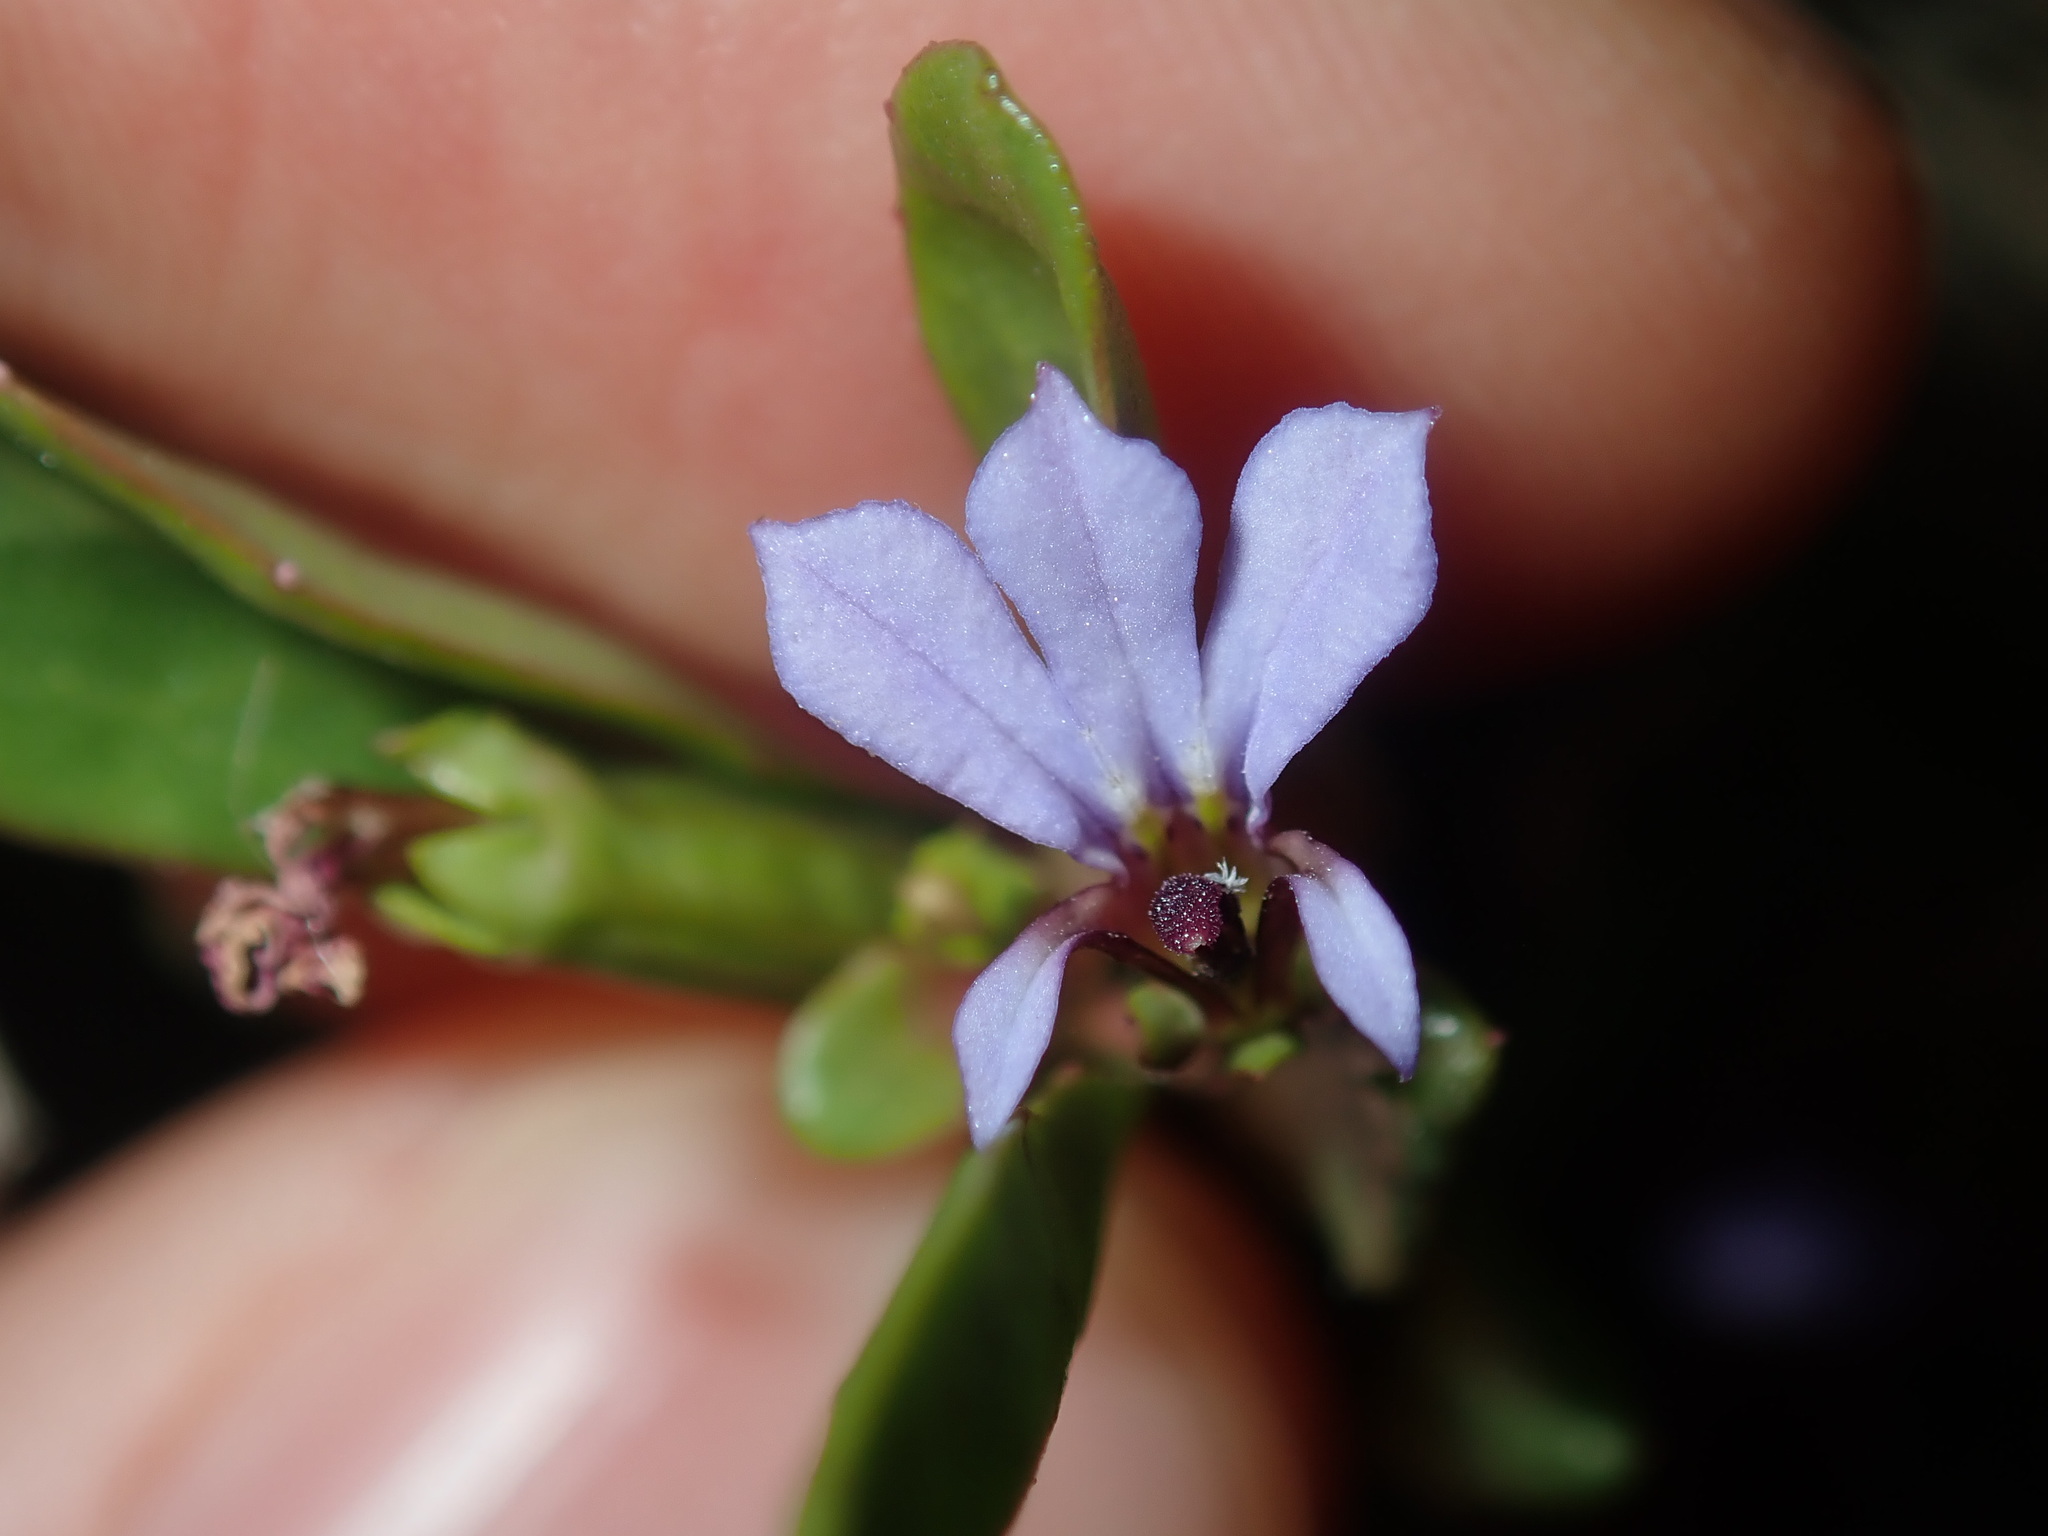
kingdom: Plantae
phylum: Tracheophyta
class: Magnoliopsida
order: Asterales
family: Campanulaceae
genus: Lobelia
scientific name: Lobelia anceps
